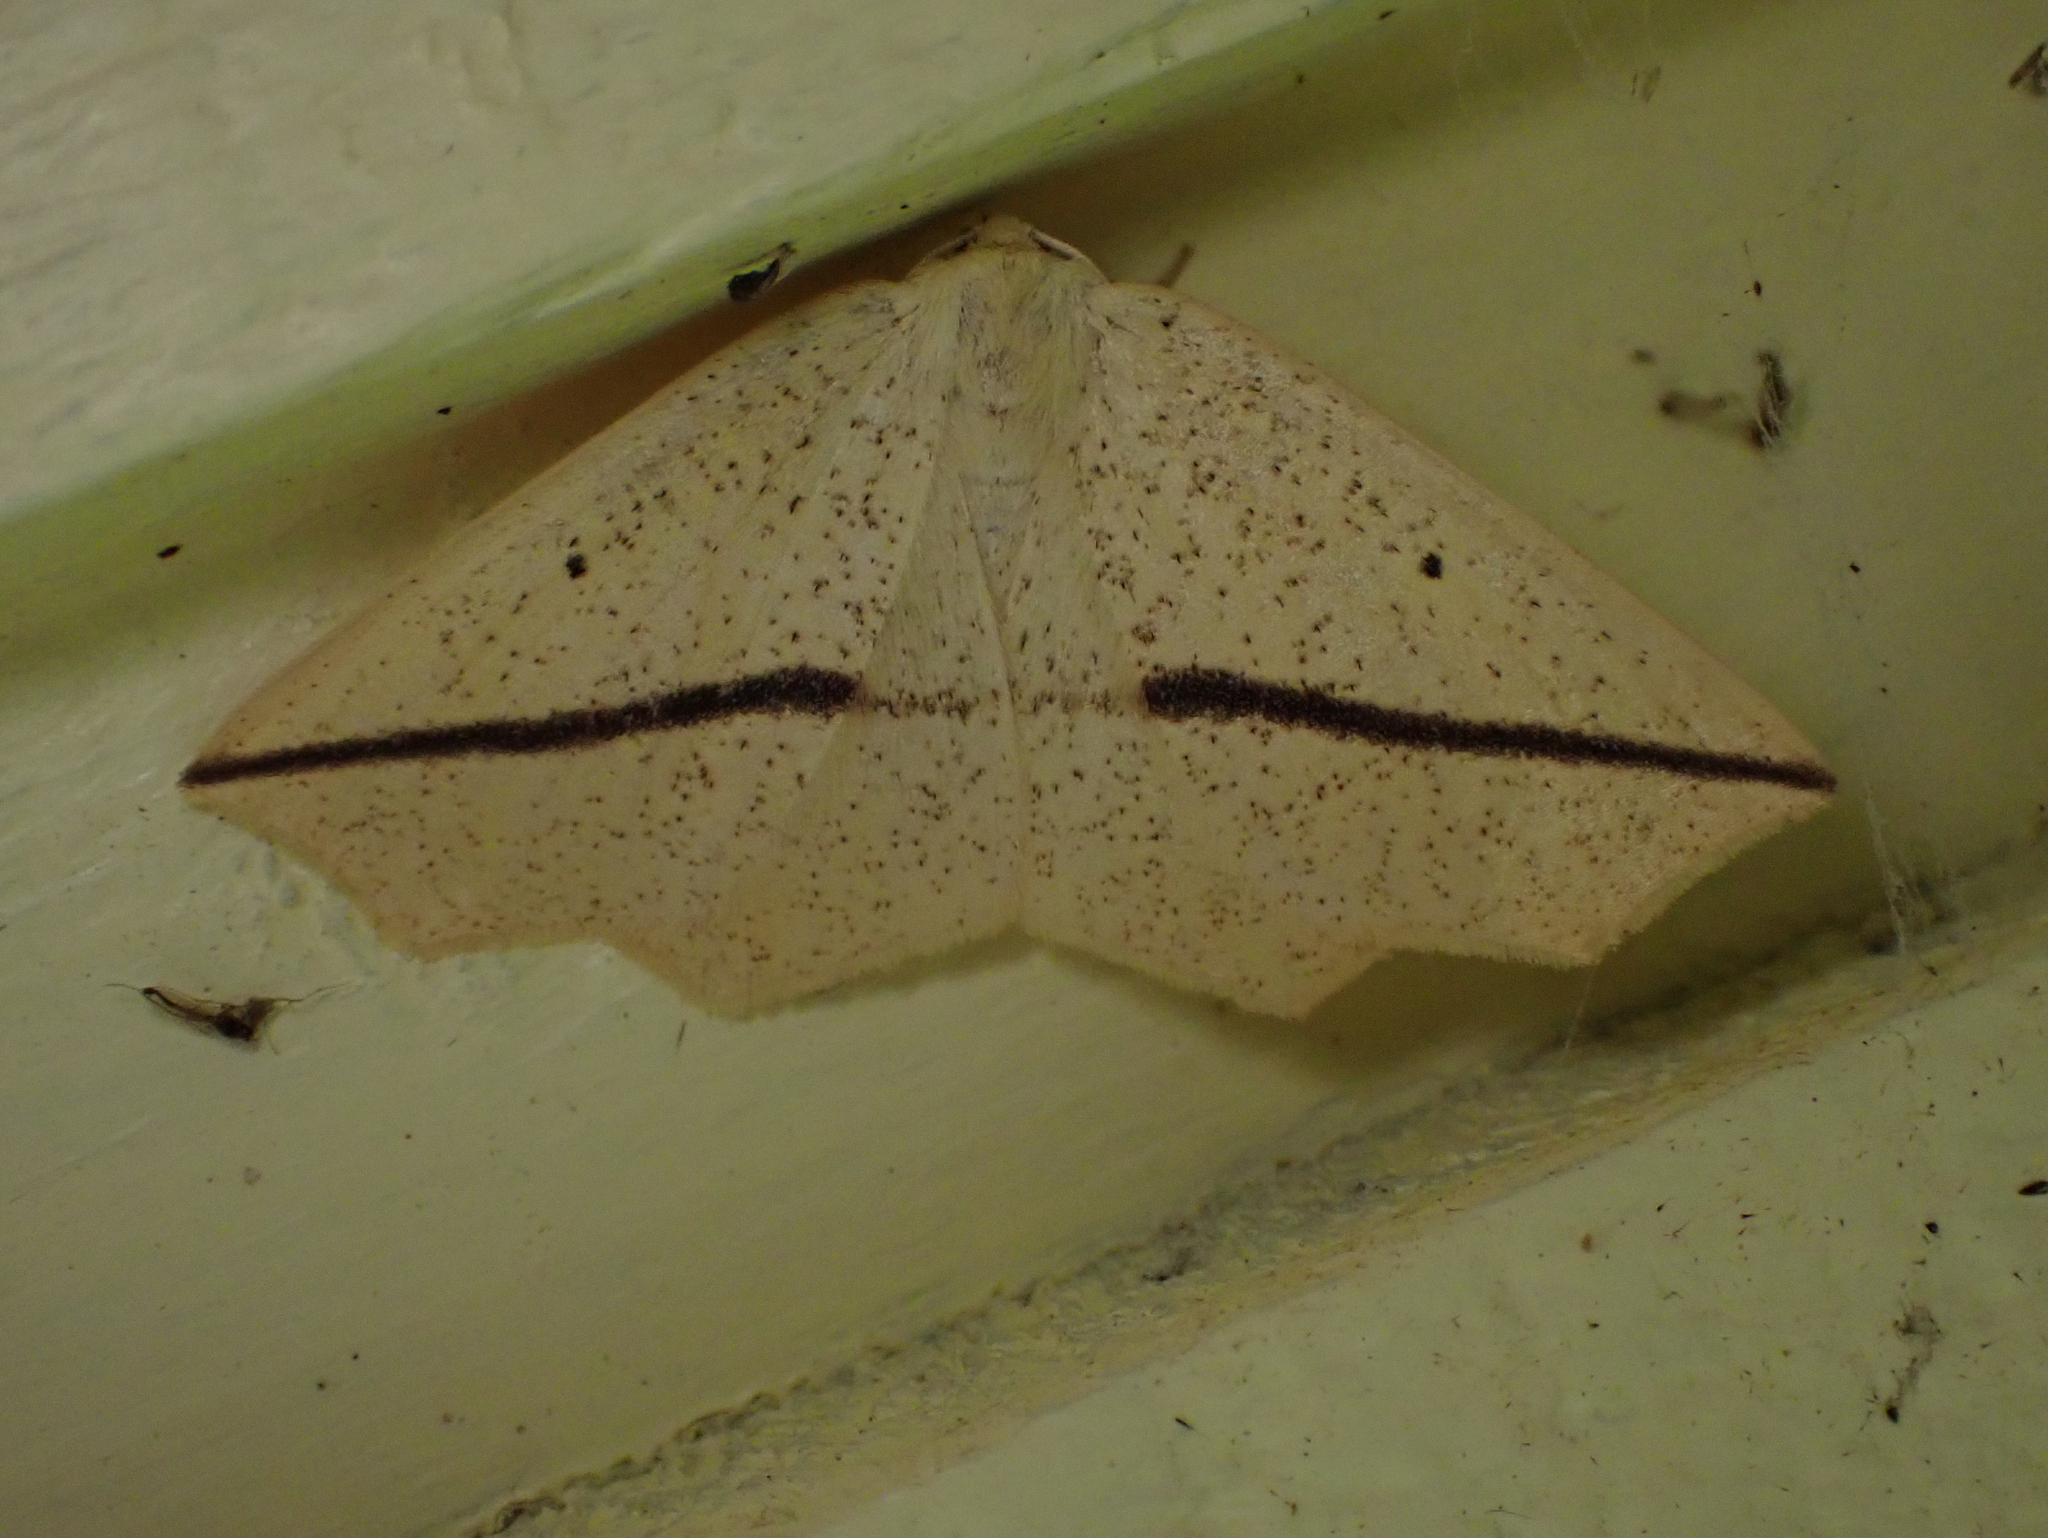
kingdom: Animalia
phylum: Arthropoda
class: Insecta
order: Lepidoptera
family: Geometridae
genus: Tetracis
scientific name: Tetracis crocallata
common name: Yellow slant-line
